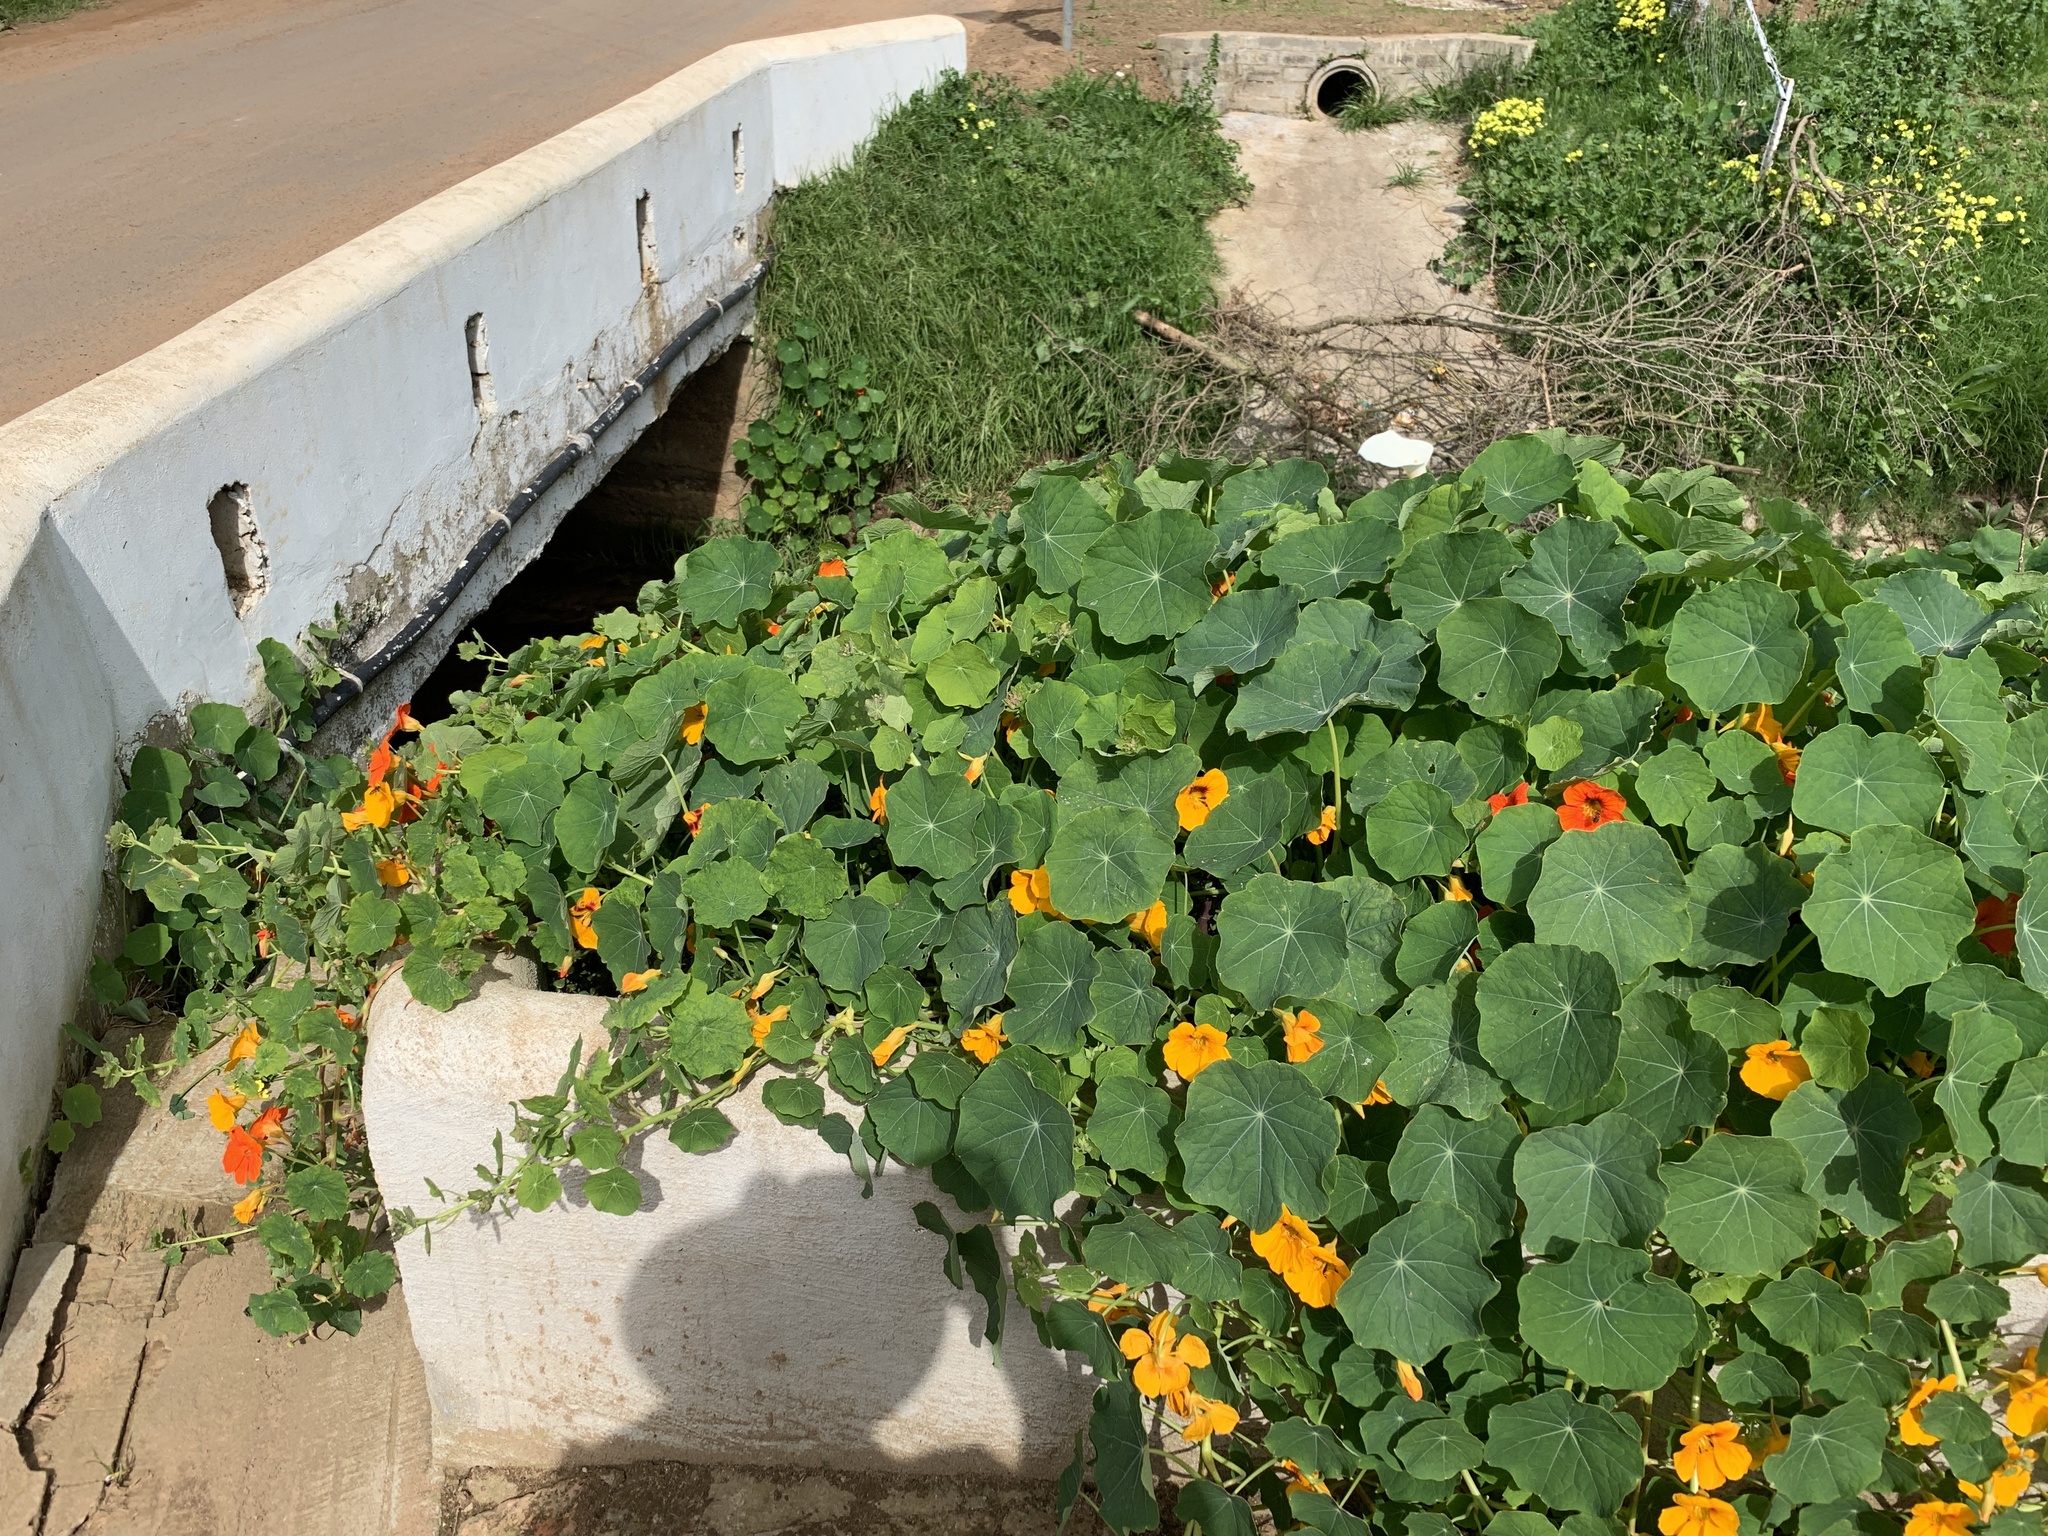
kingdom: Plantae
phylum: Tracheophyta
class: Magnoliopsida
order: Brassicales
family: Tropaeolaceae
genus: Tropaeolum
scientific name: Tropaeolum majus
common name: Nasturtium
